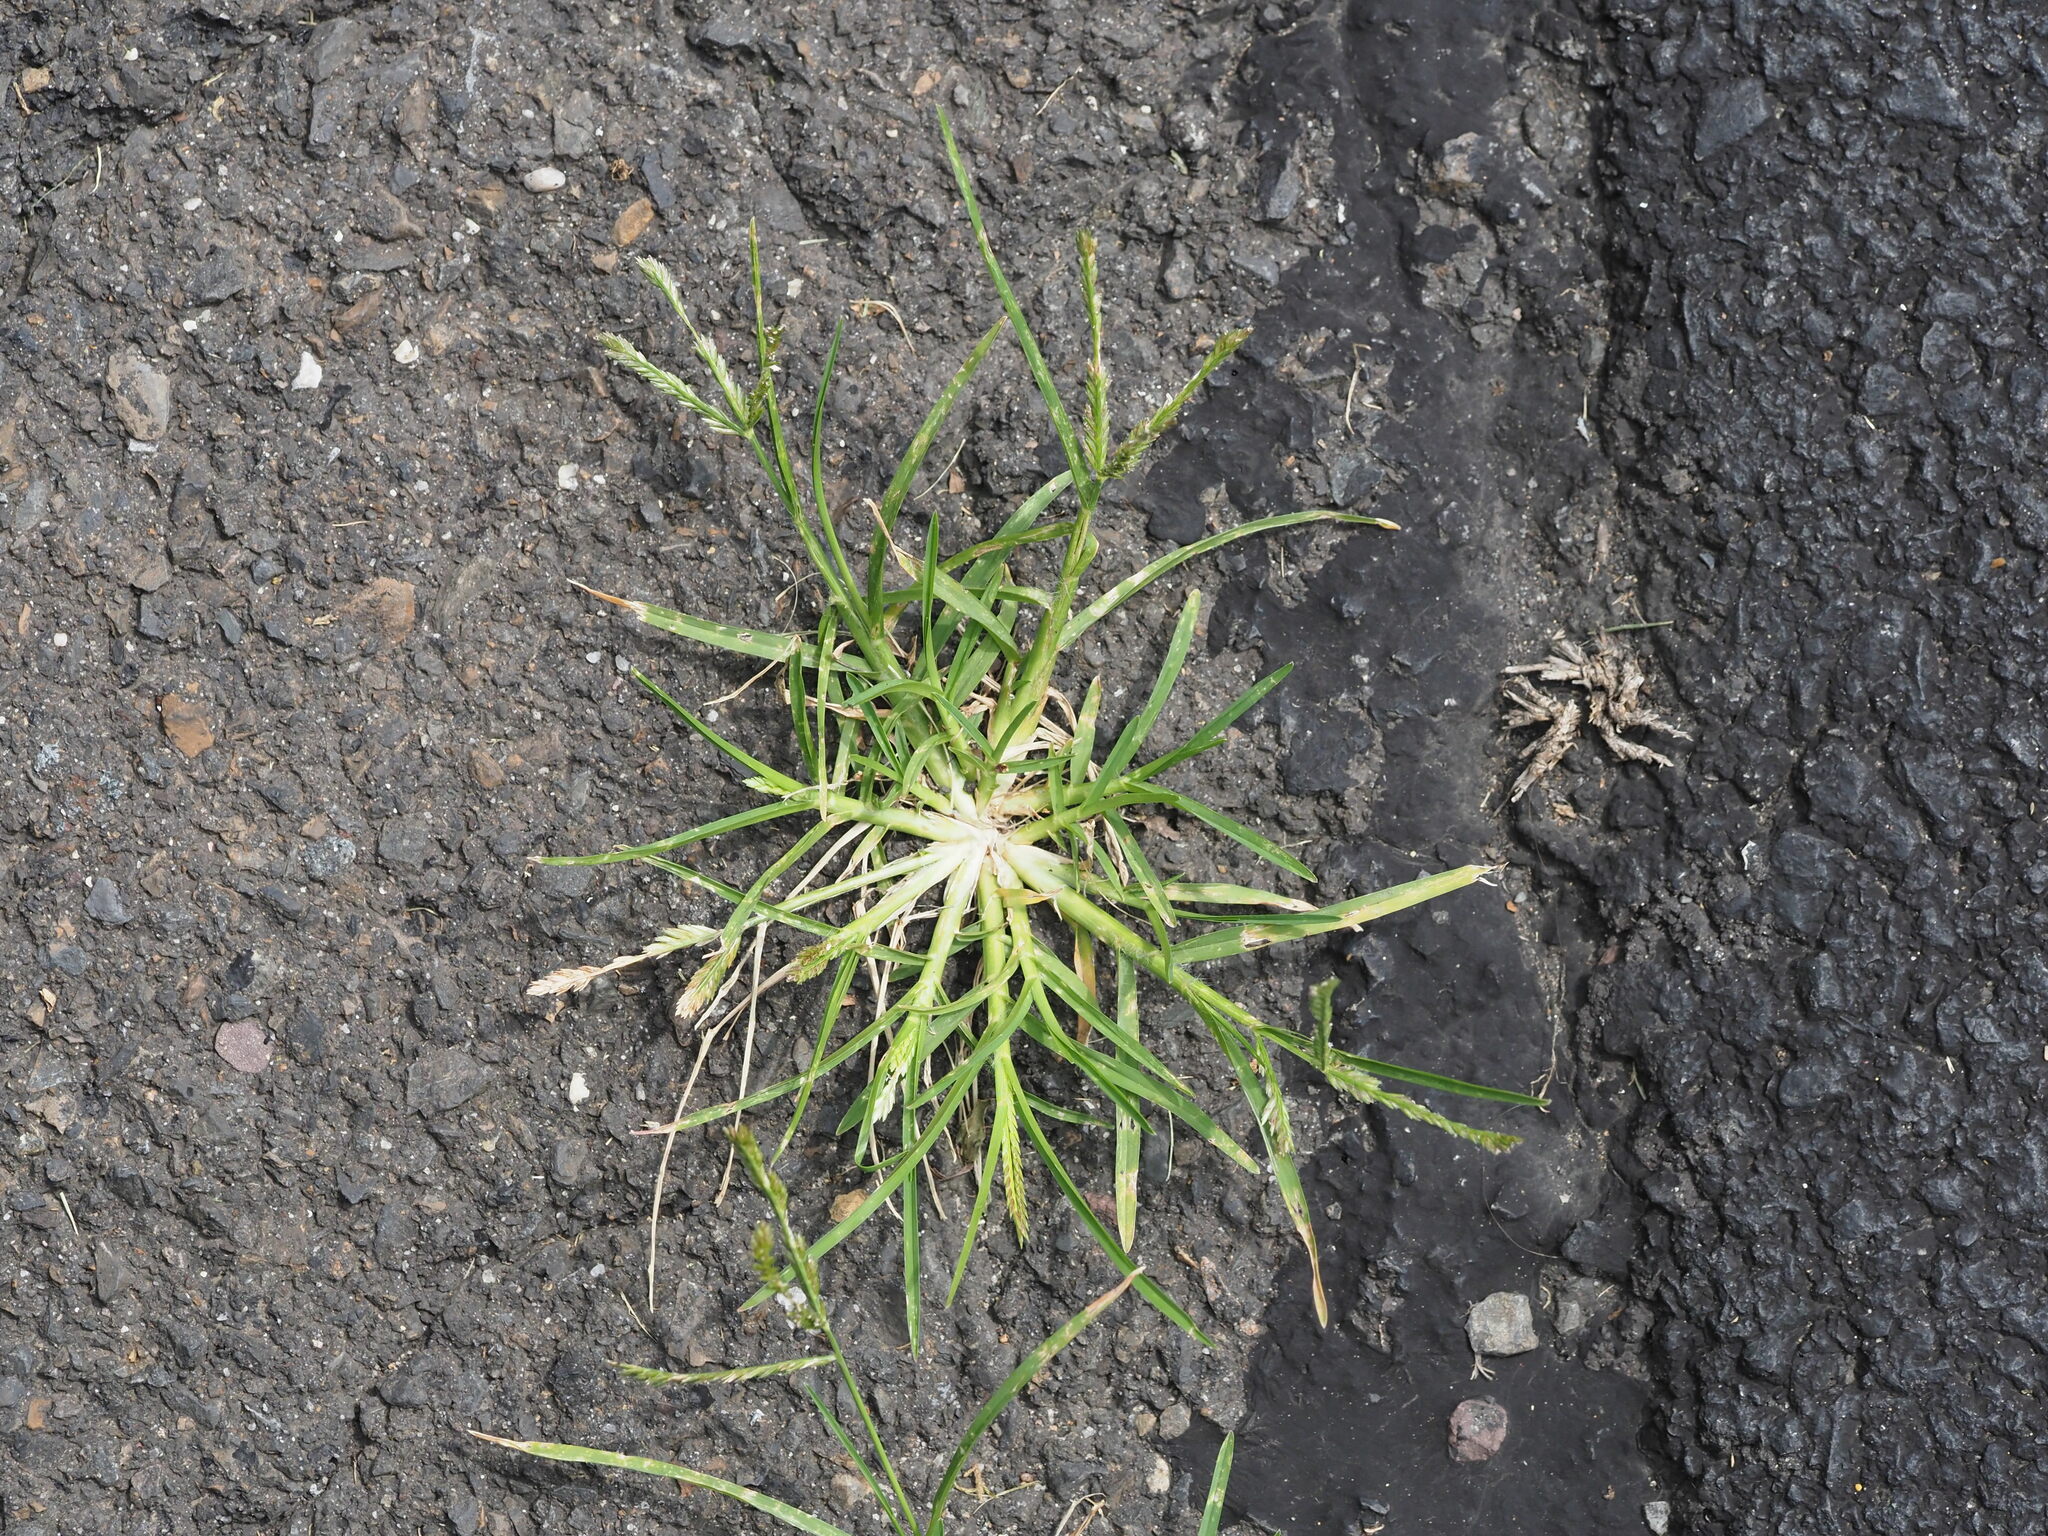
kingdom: Plantae
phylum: Tracheophyta
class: Liliopsida
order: Poales
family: Poaceae
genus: Eleusine
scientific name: Eleusine indica
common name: Yard-grass
